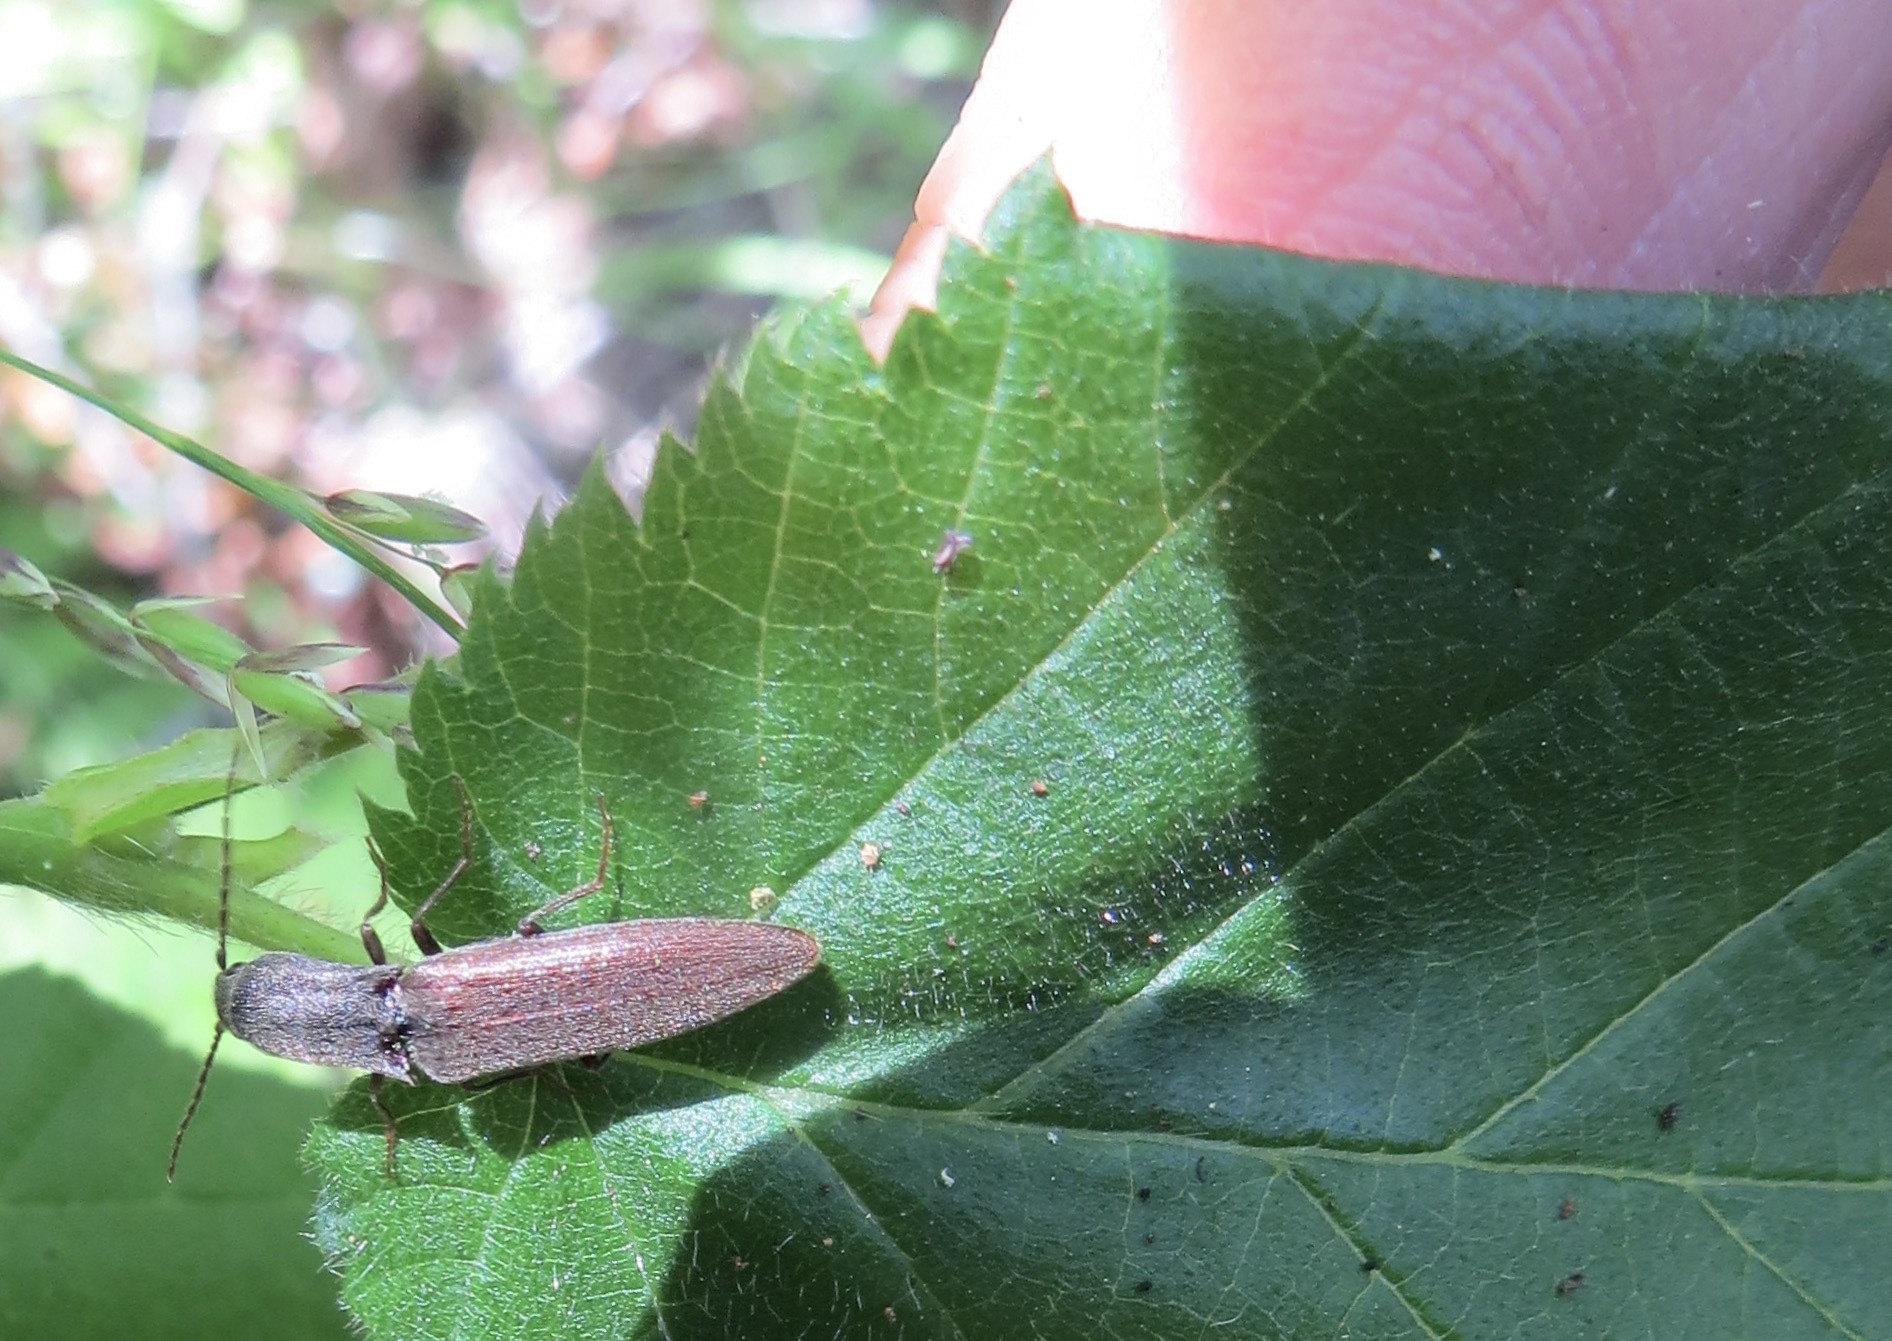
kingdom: Animalia
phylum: Arthropoda
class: Insecta
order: Coleoptera
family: Elateridae
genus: Leptoschema
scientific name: Leptoschema
